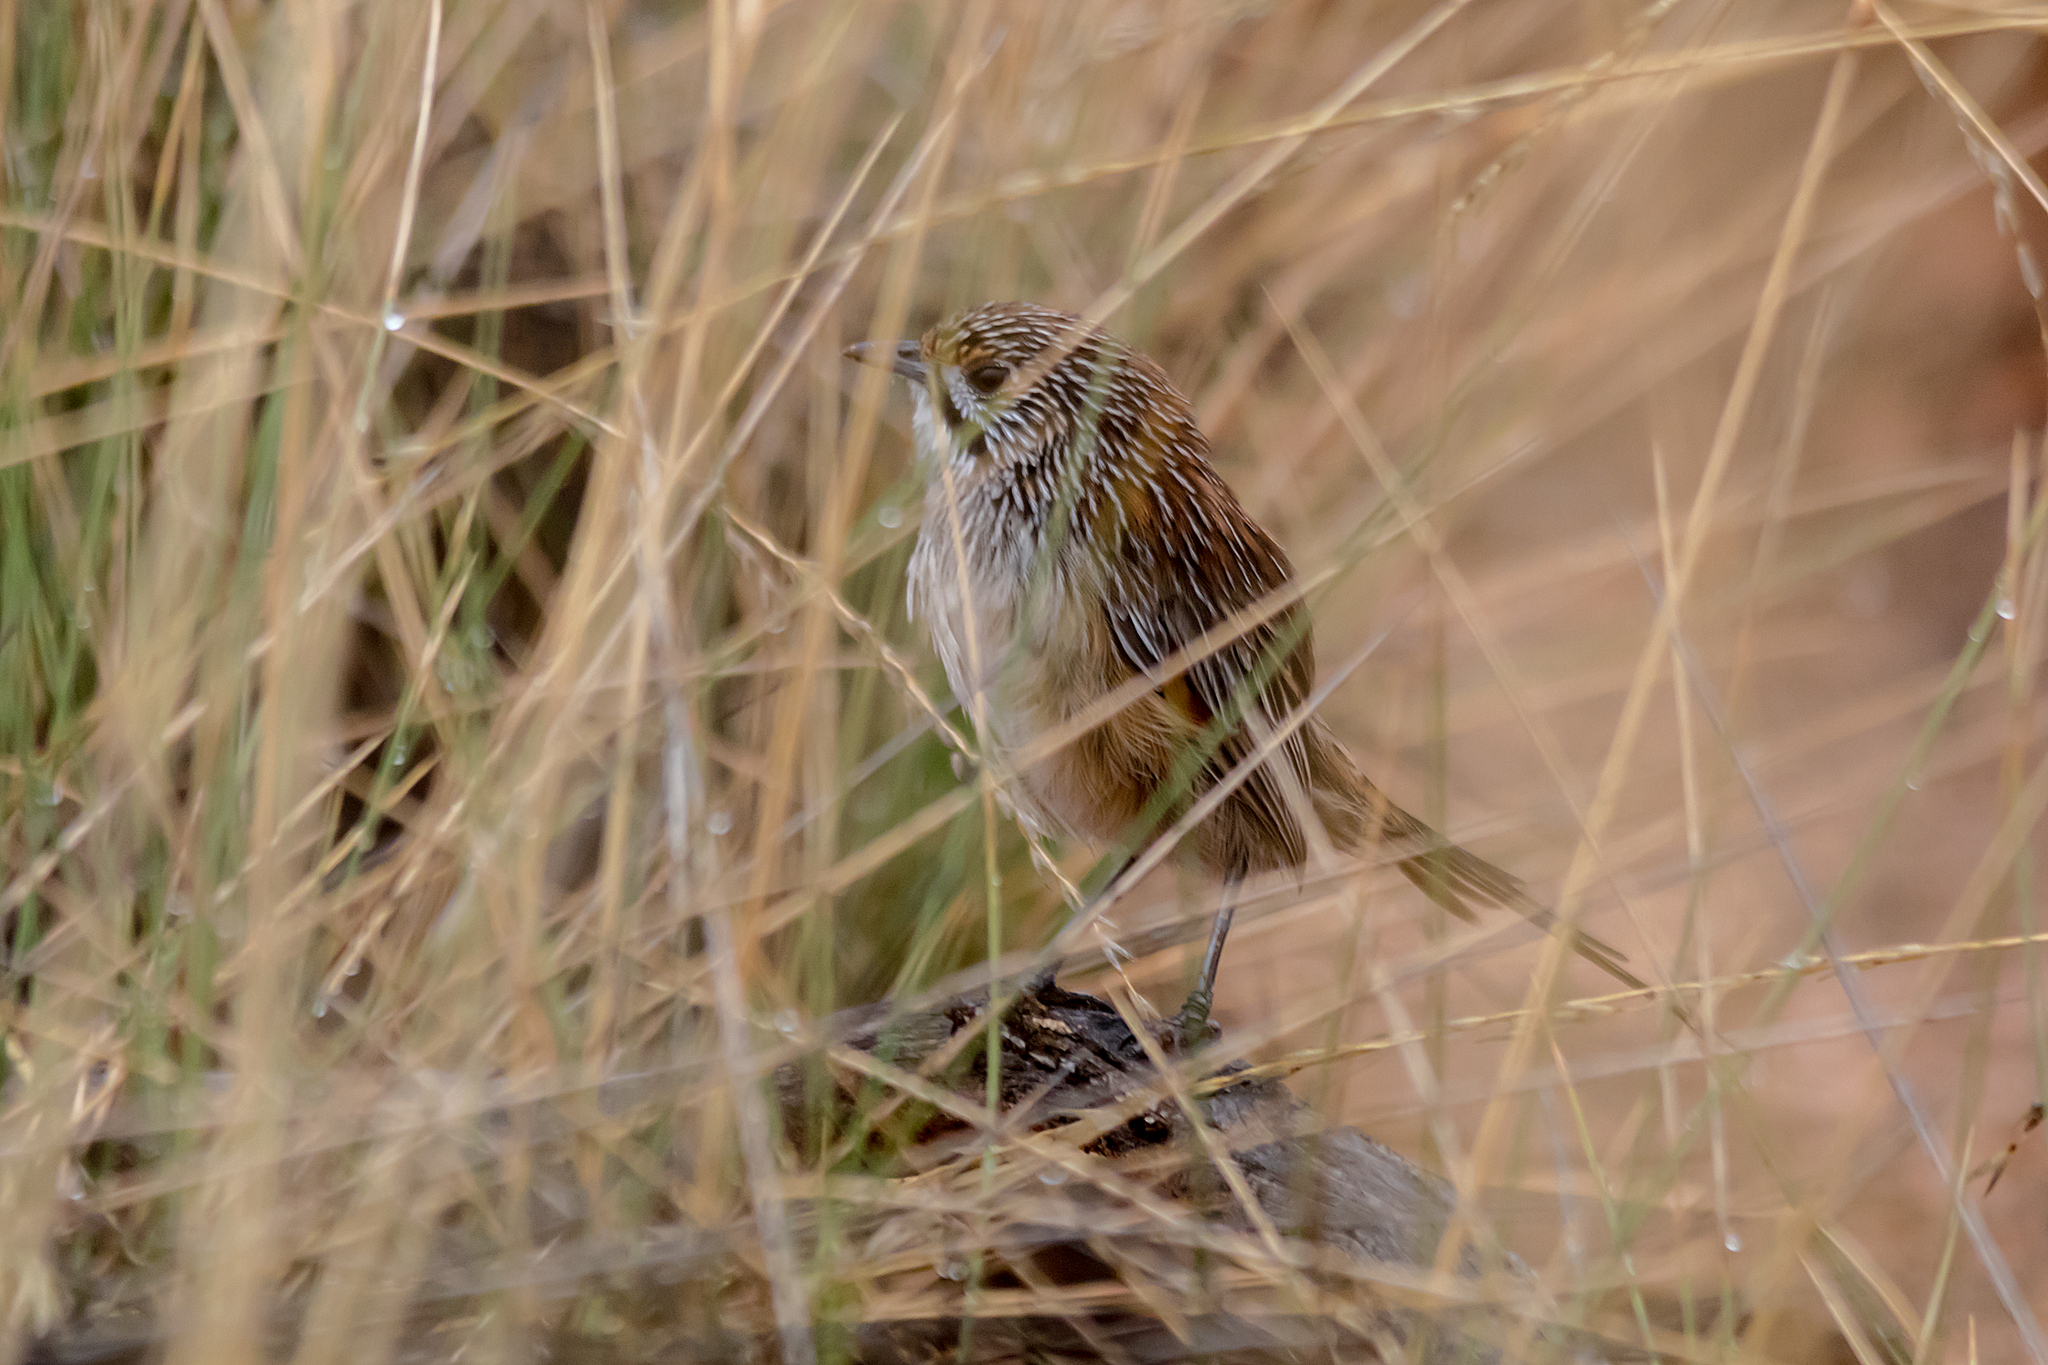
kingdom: Animalia
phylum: Chordata
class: Aves
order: Passeriformes
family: Maluridae
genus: Amytornis
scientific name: Amytornis striatus
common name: Striated grasswren
